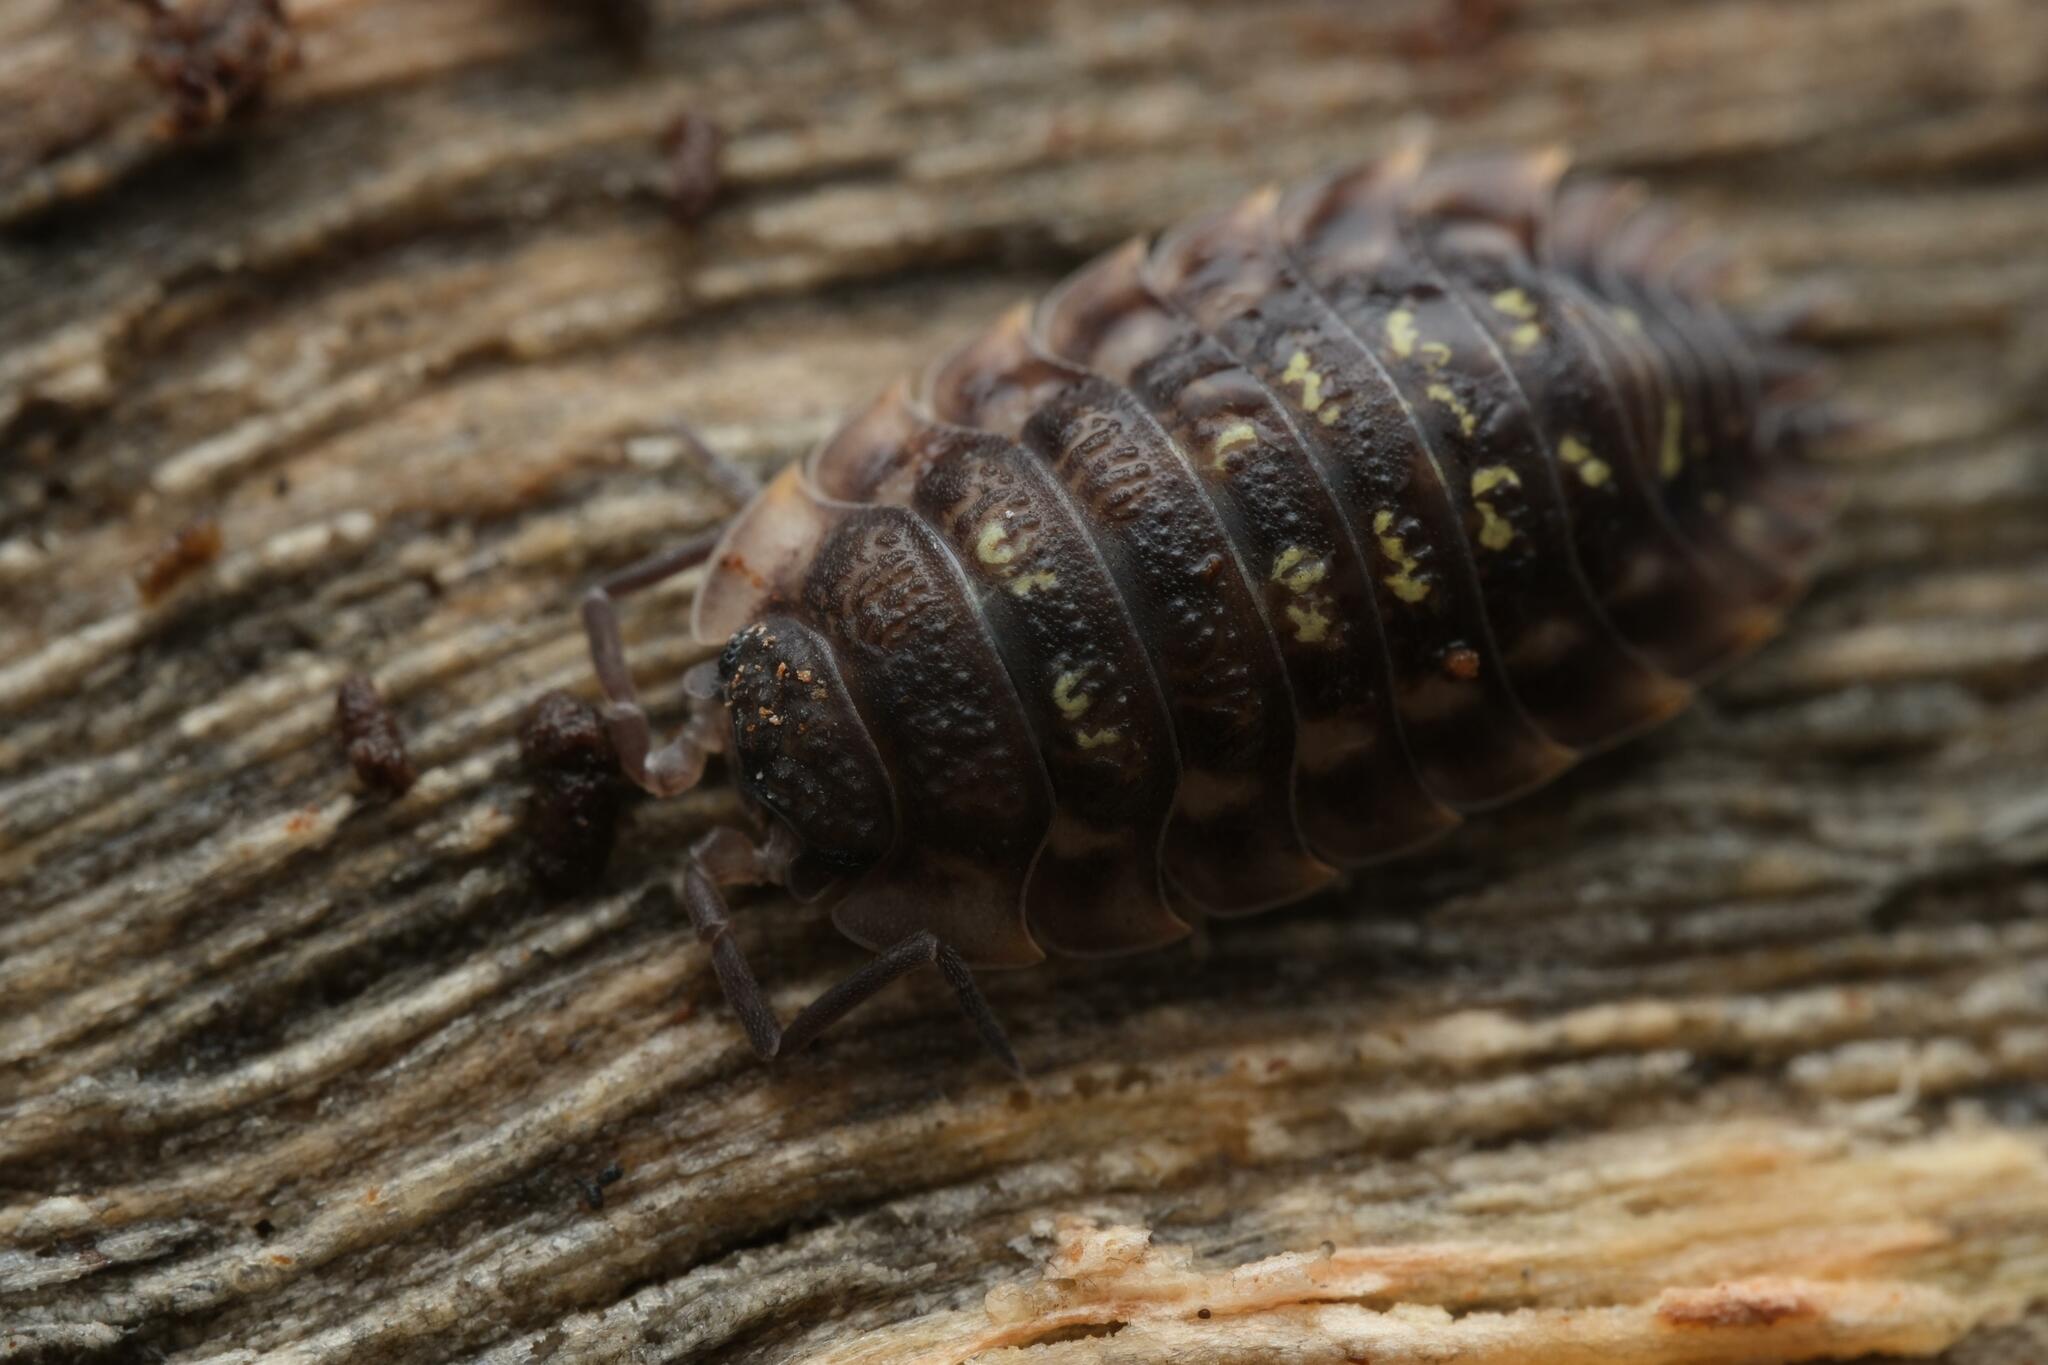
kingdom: Animalia
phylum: Arthropoda
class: Malacostraca
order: Isopoda
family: Oniscidae
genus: Oniscus
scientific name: Oniscus asellus
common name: Common shiny woodlouse
